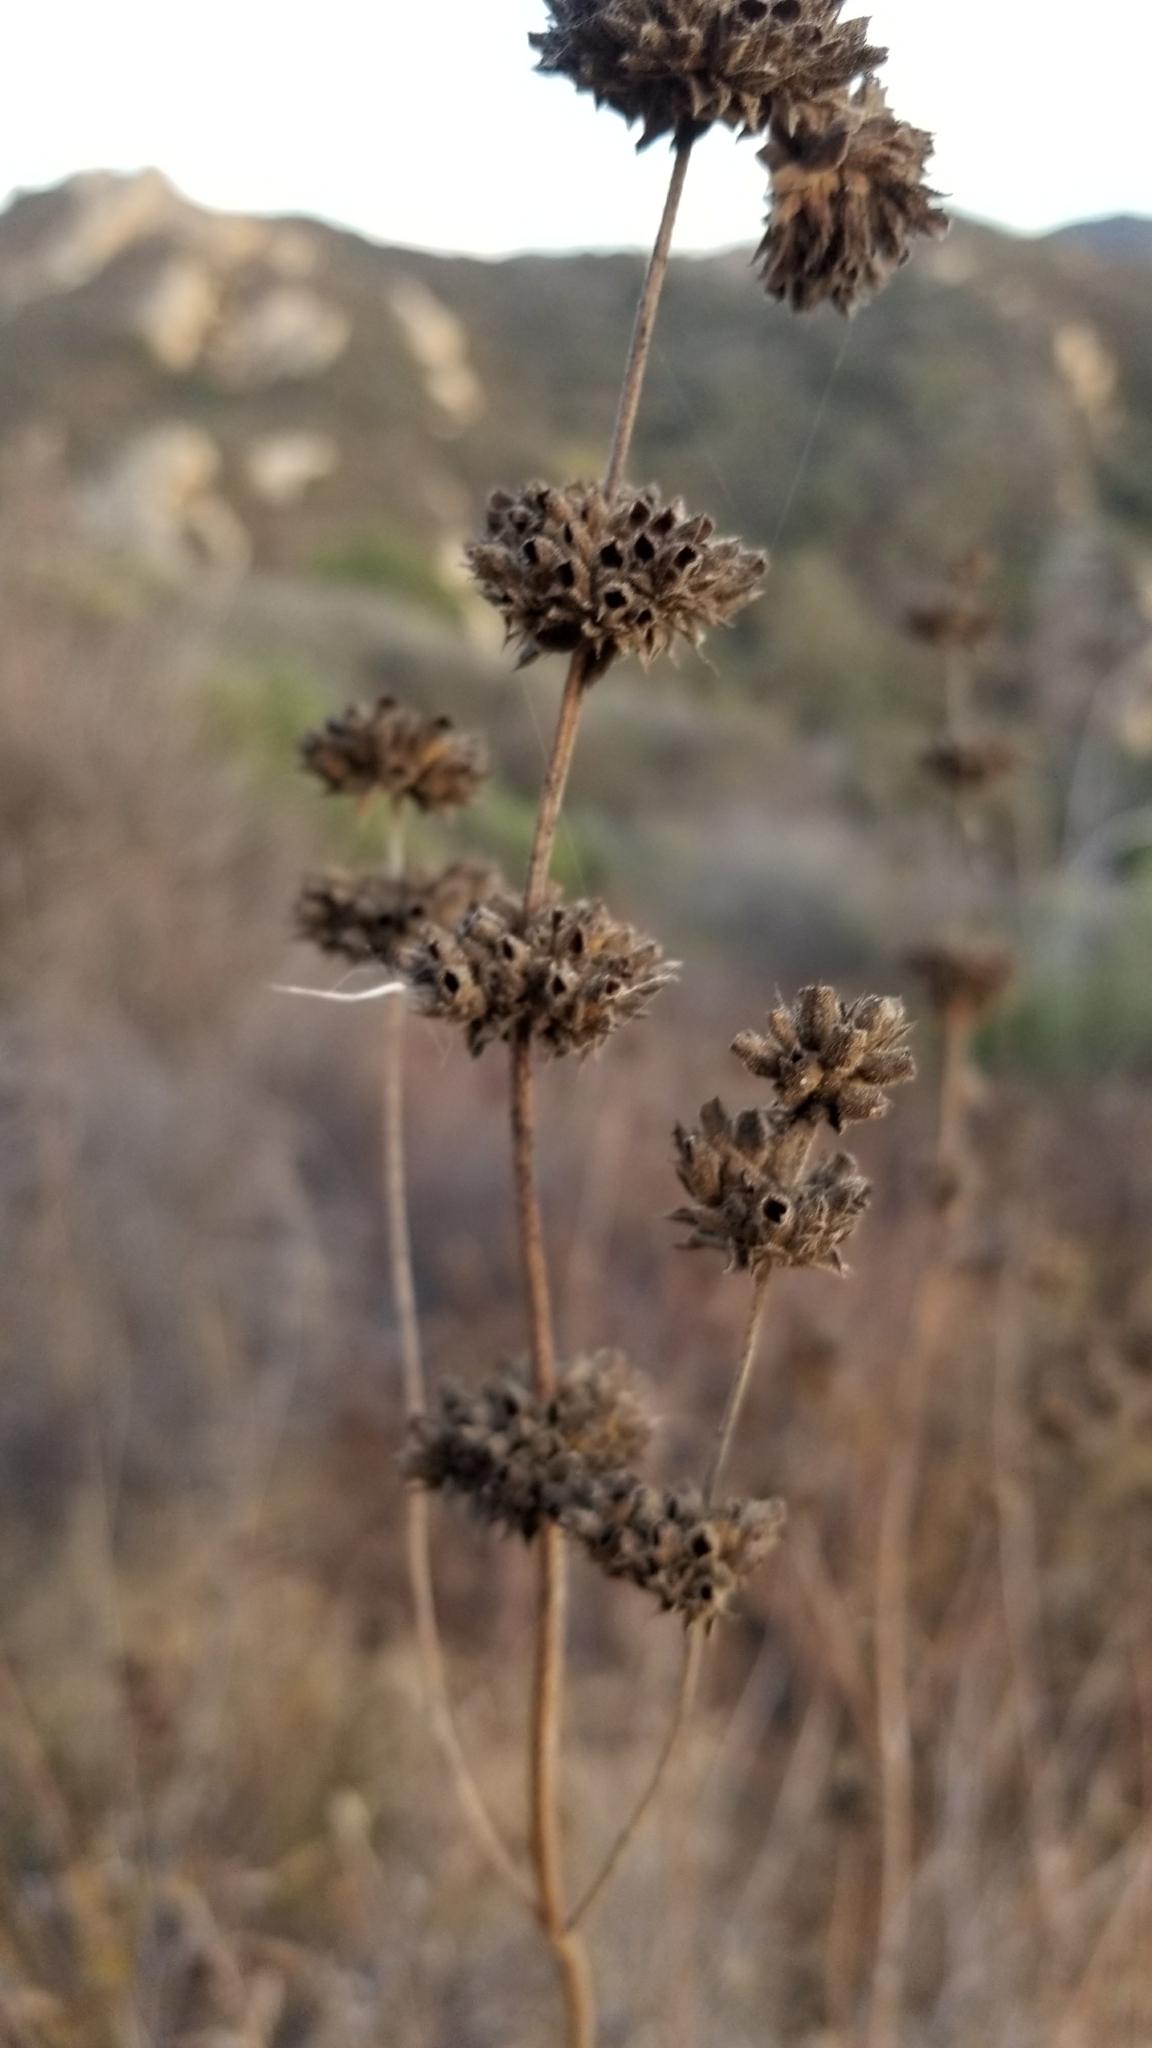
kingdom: Plantae
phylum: Tracheophyta
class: Magnoliopsida
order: Lamiales
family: Lamiaceae
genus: Salvia
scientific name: Salvia mellifera
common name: Black sage
